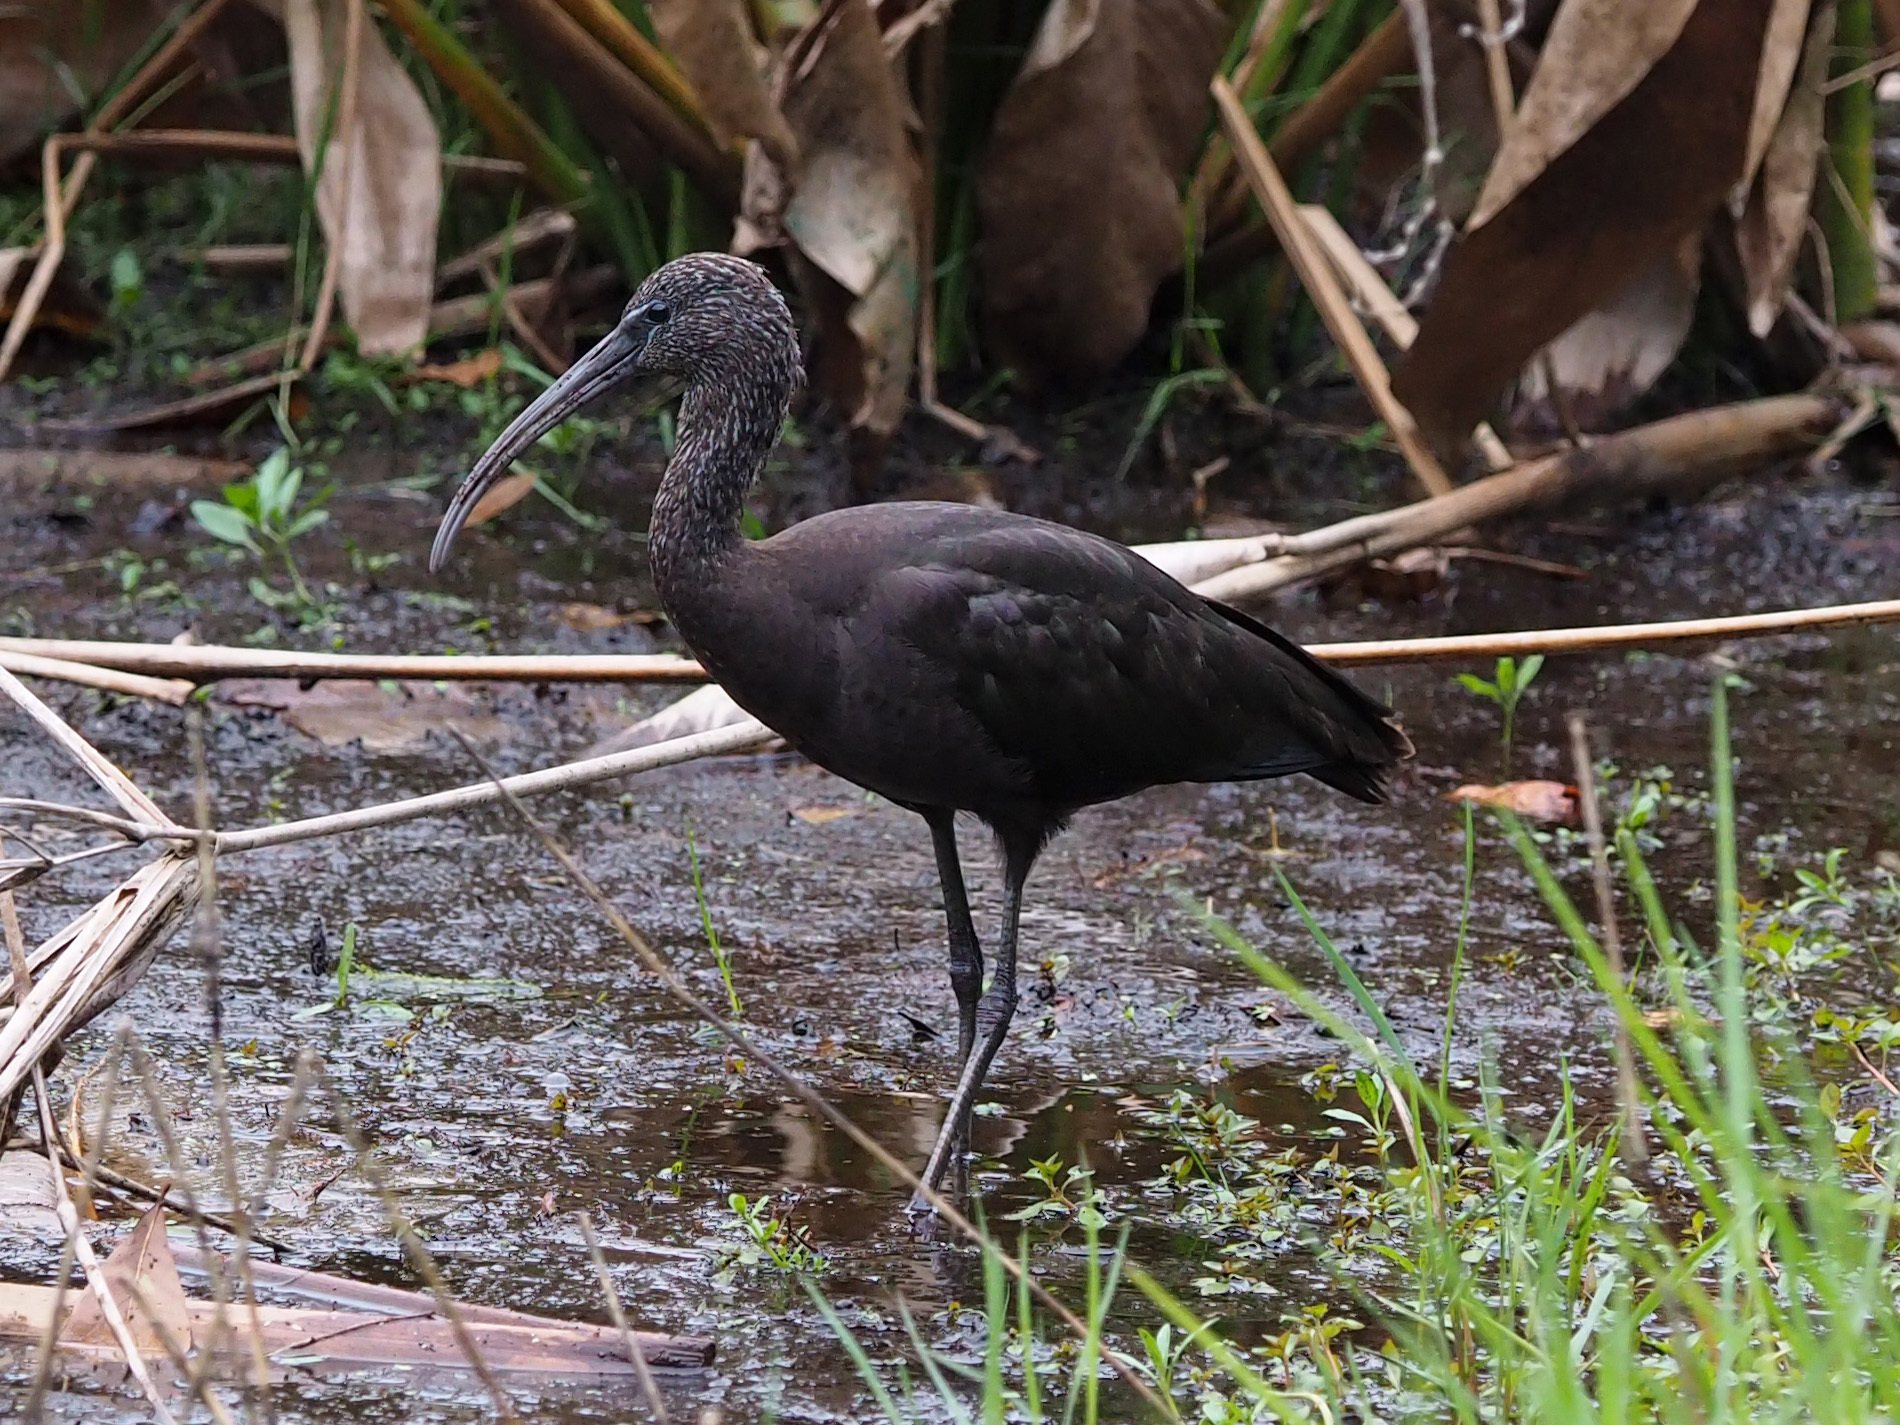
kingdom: Animalia
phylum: Chordata
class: Aves
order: Pelecaniformes
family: Threskiornithidae
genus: Plegadis
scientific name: Plegadis falcinellus
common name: Glossy ibis
